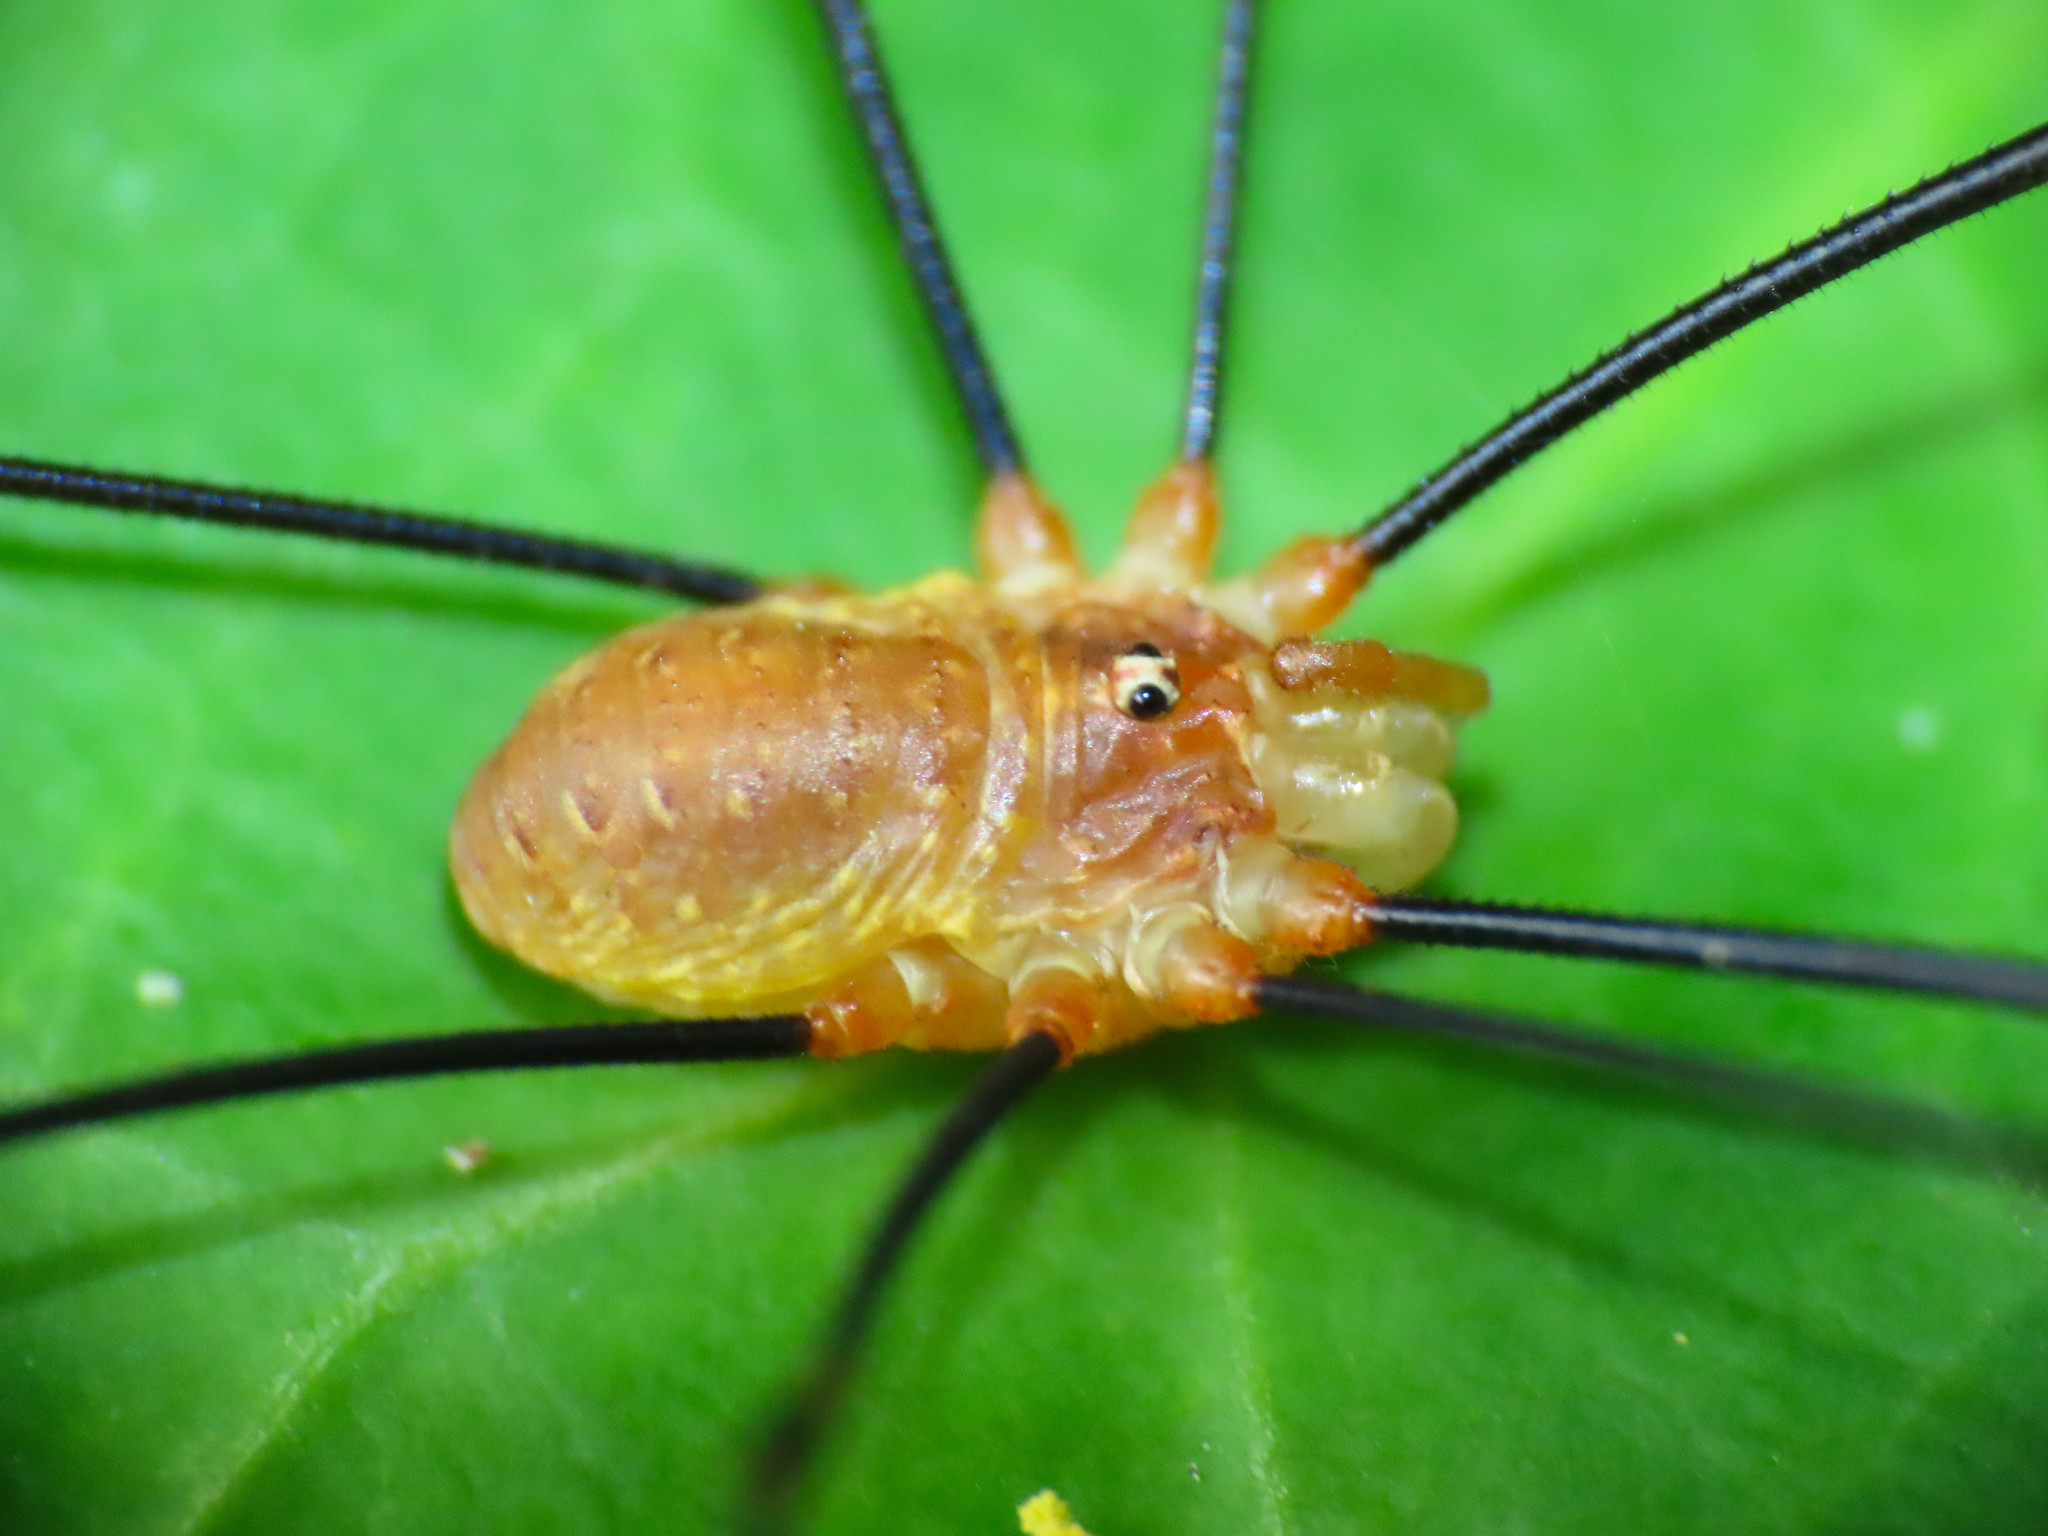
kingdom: Animalia
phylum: Arthropoda
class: Arachnida
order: Opiliones
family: Phalangiidae
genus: Opilio
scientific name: Opilio canestrinii
